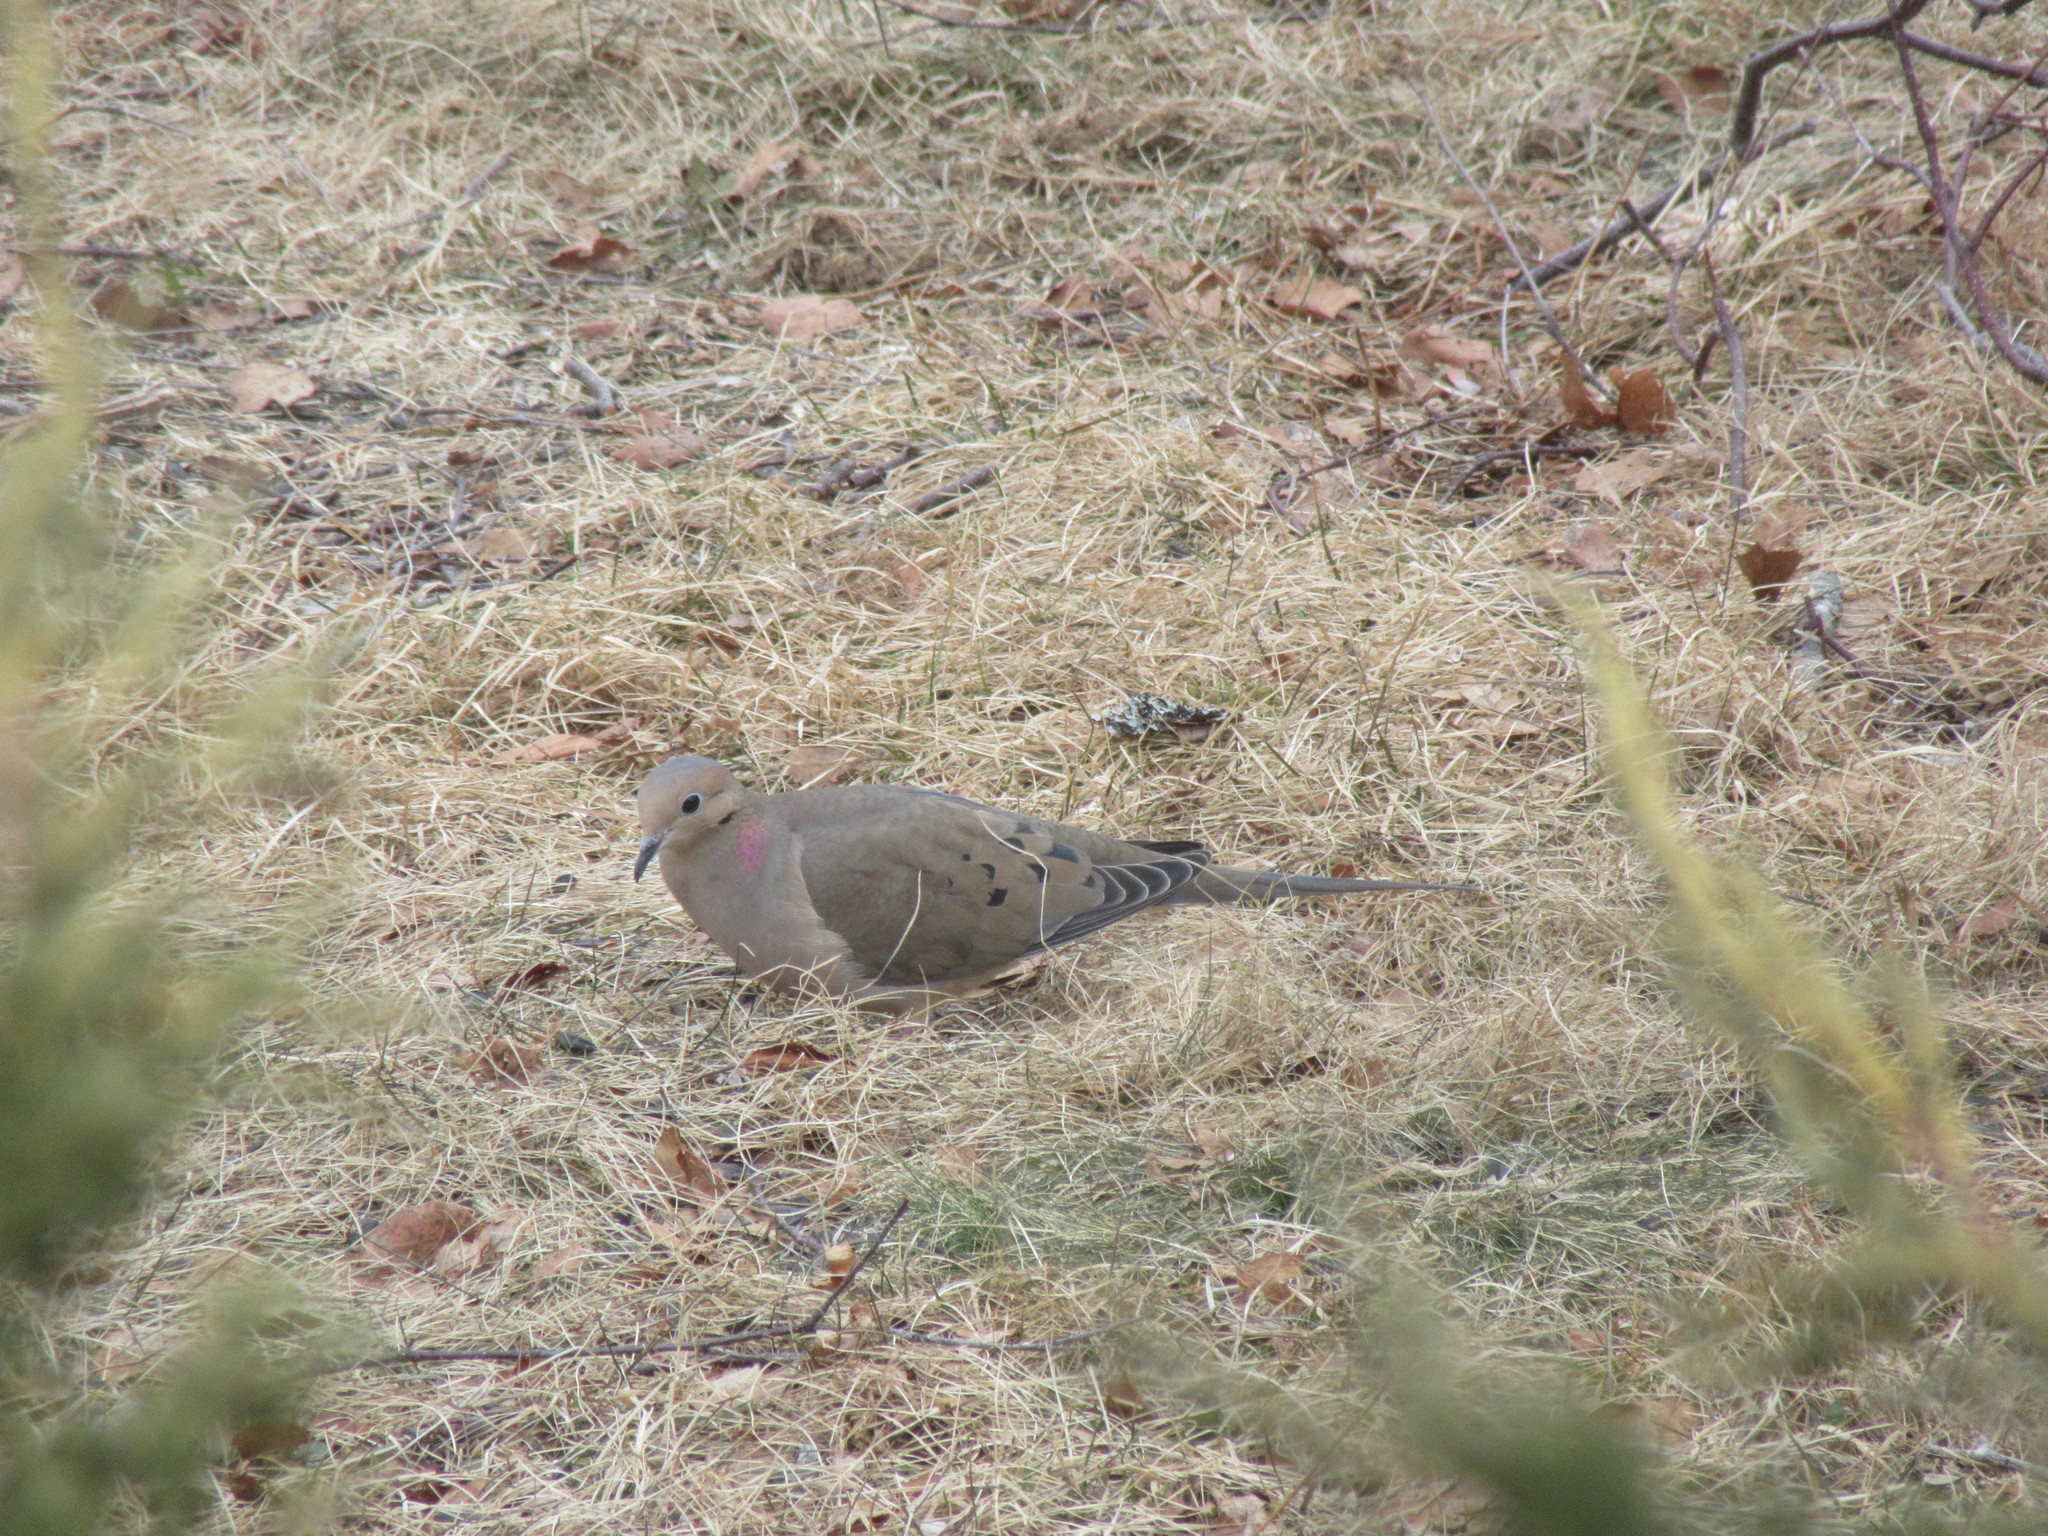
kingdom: Animalia
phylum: Chordata
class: Aves
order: Columbiformes
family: Columbidae
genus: Zenaida
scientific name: Zenaida macroura
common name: Mourning dove
